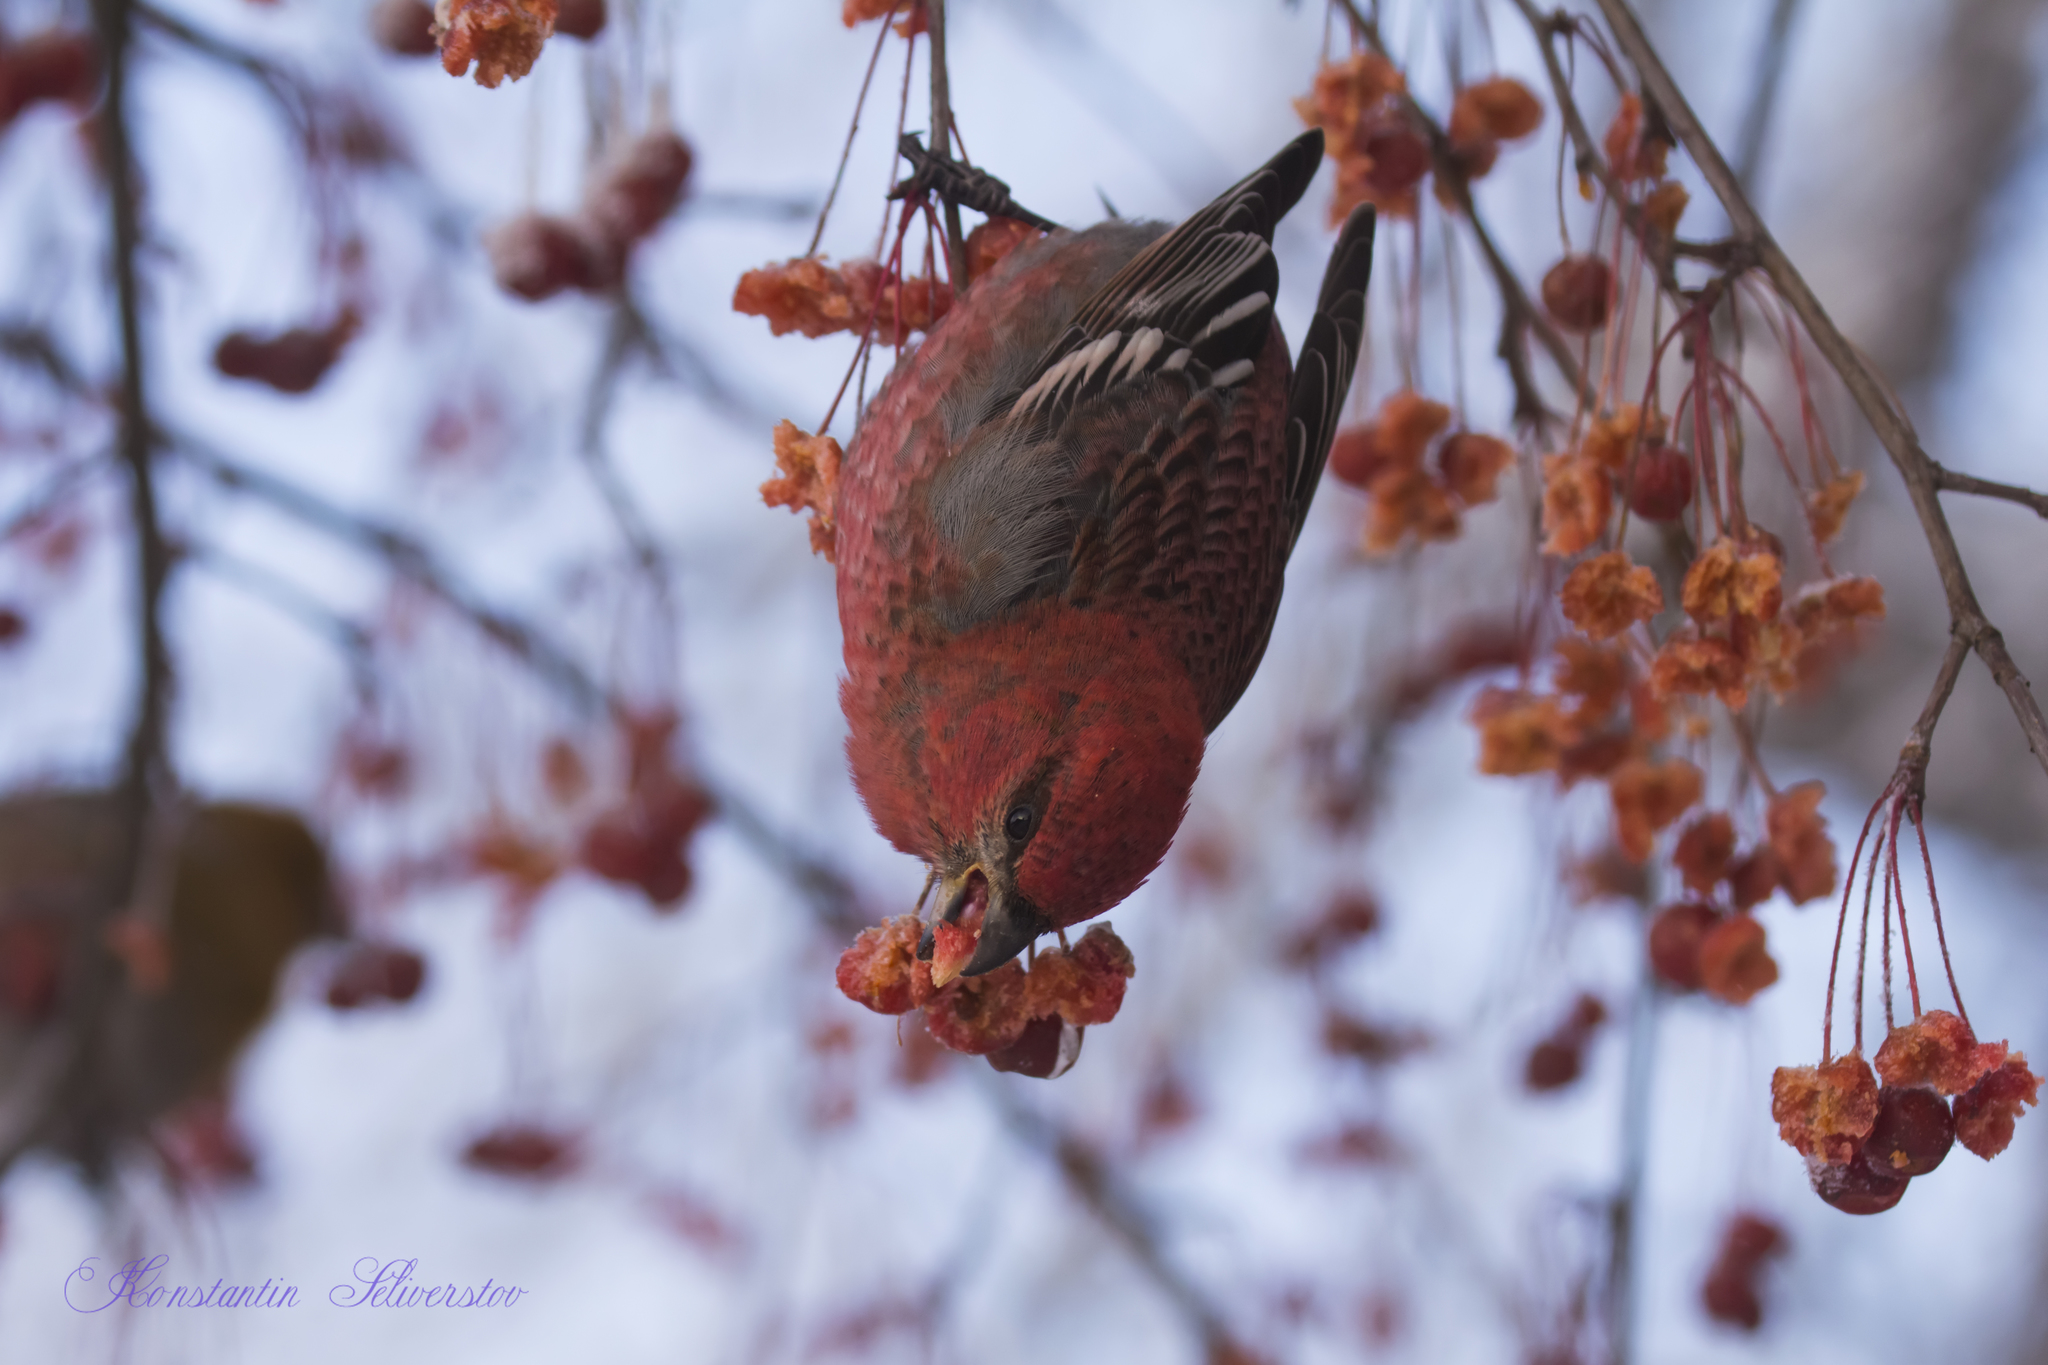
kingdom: Animalia
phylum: Chordata
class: Aves
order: Passeriformes
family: Fringillidae
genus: Pinicola
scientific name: Pinicola enucleator
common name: Pine grosbeak
